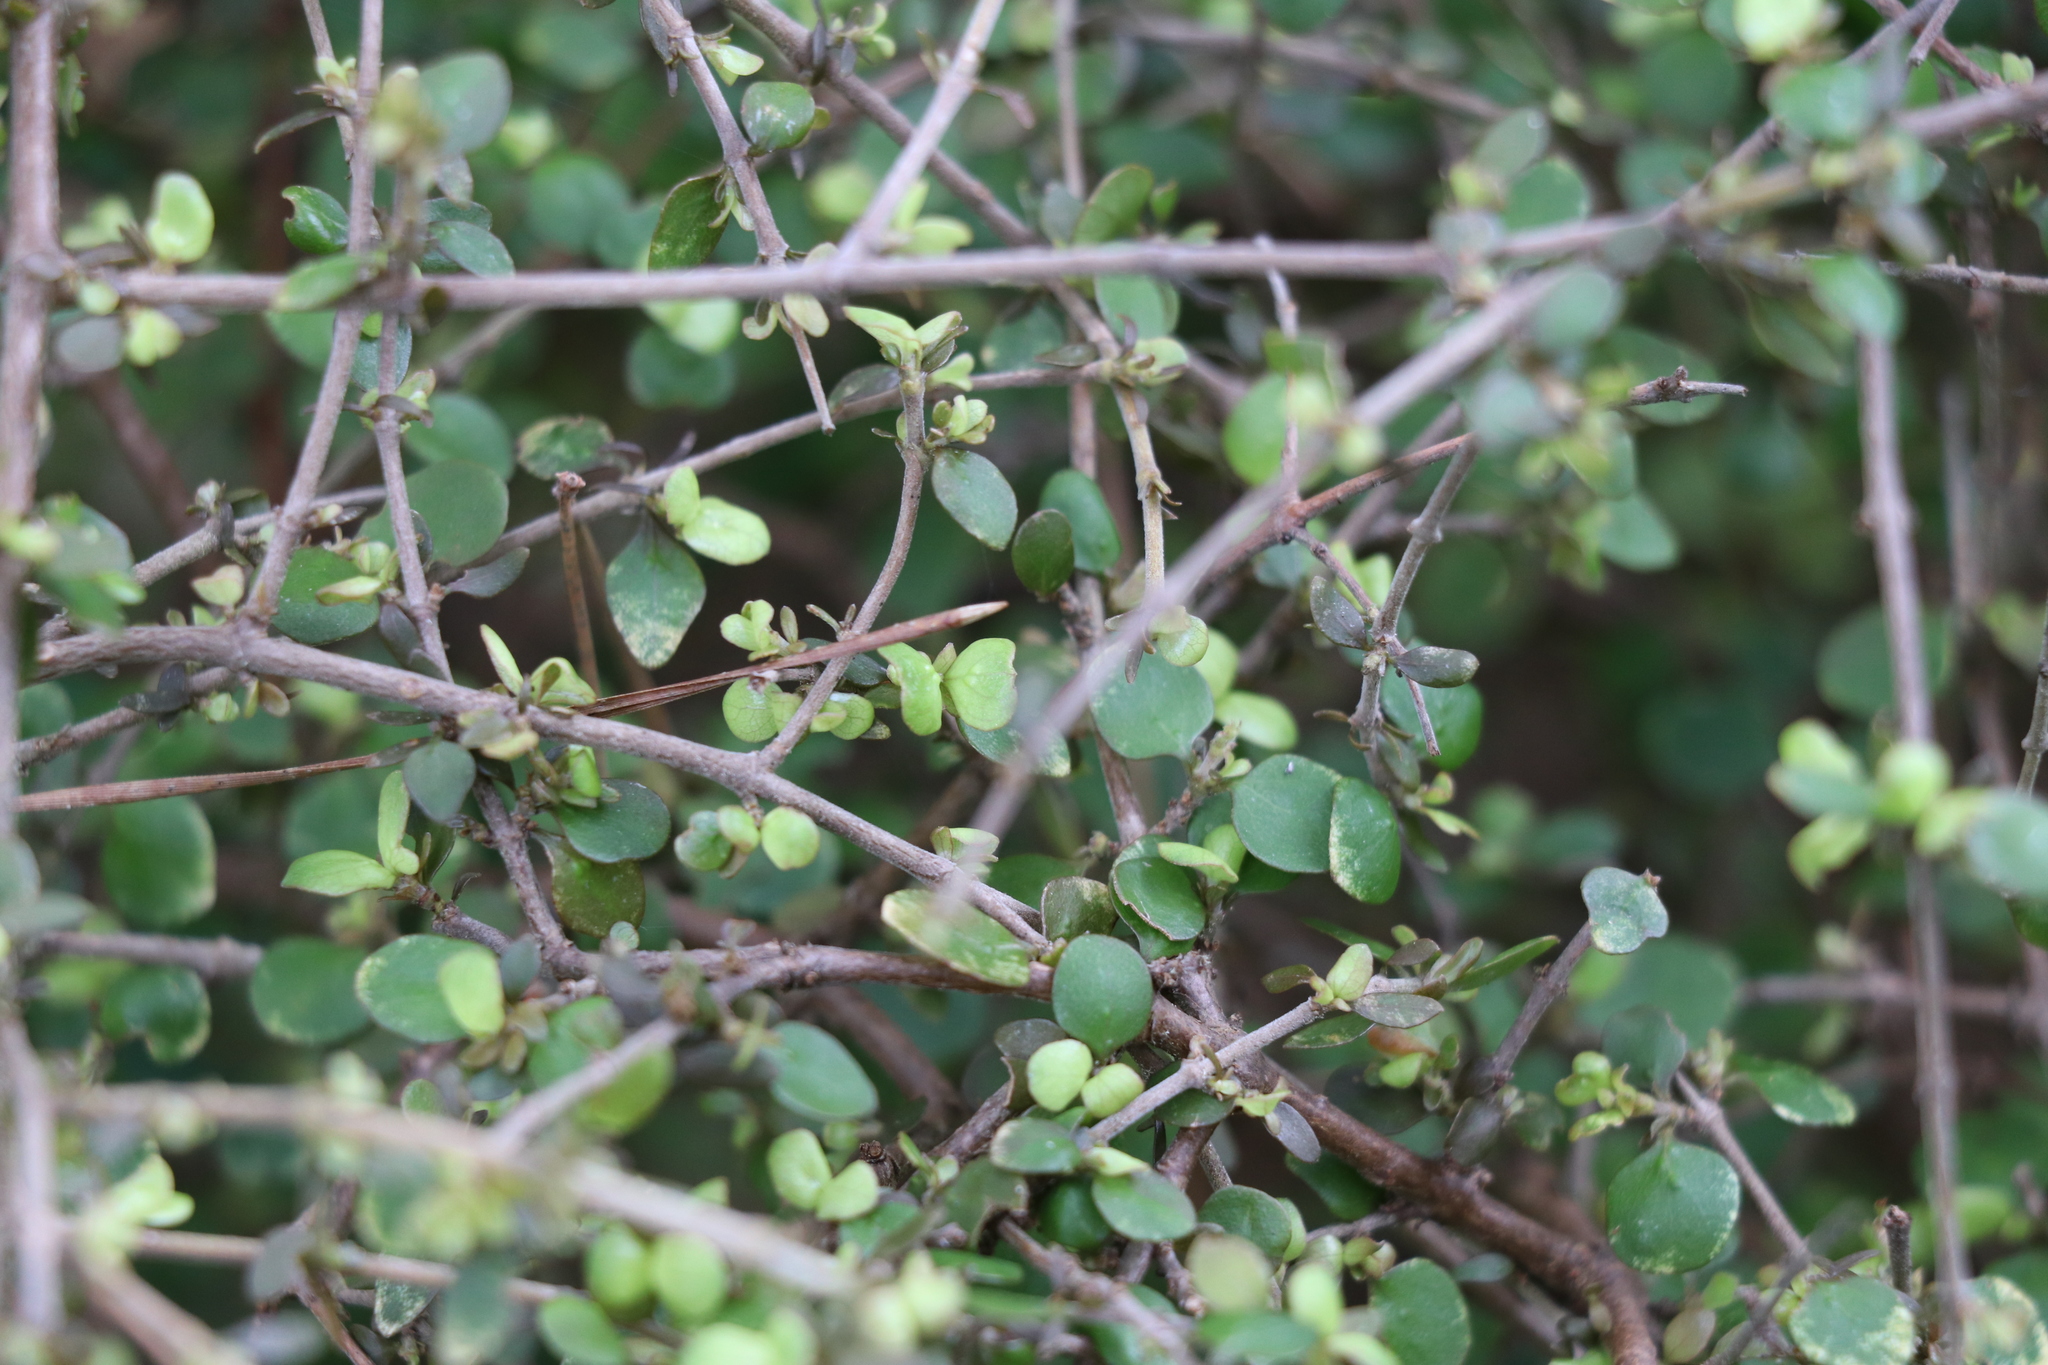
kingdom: Plantae
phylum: Tracheophyta
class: Magnoliopsida
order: Gentianales
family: Rubiaceae
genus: Coprosma
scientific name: Coprosma rhamnoides
